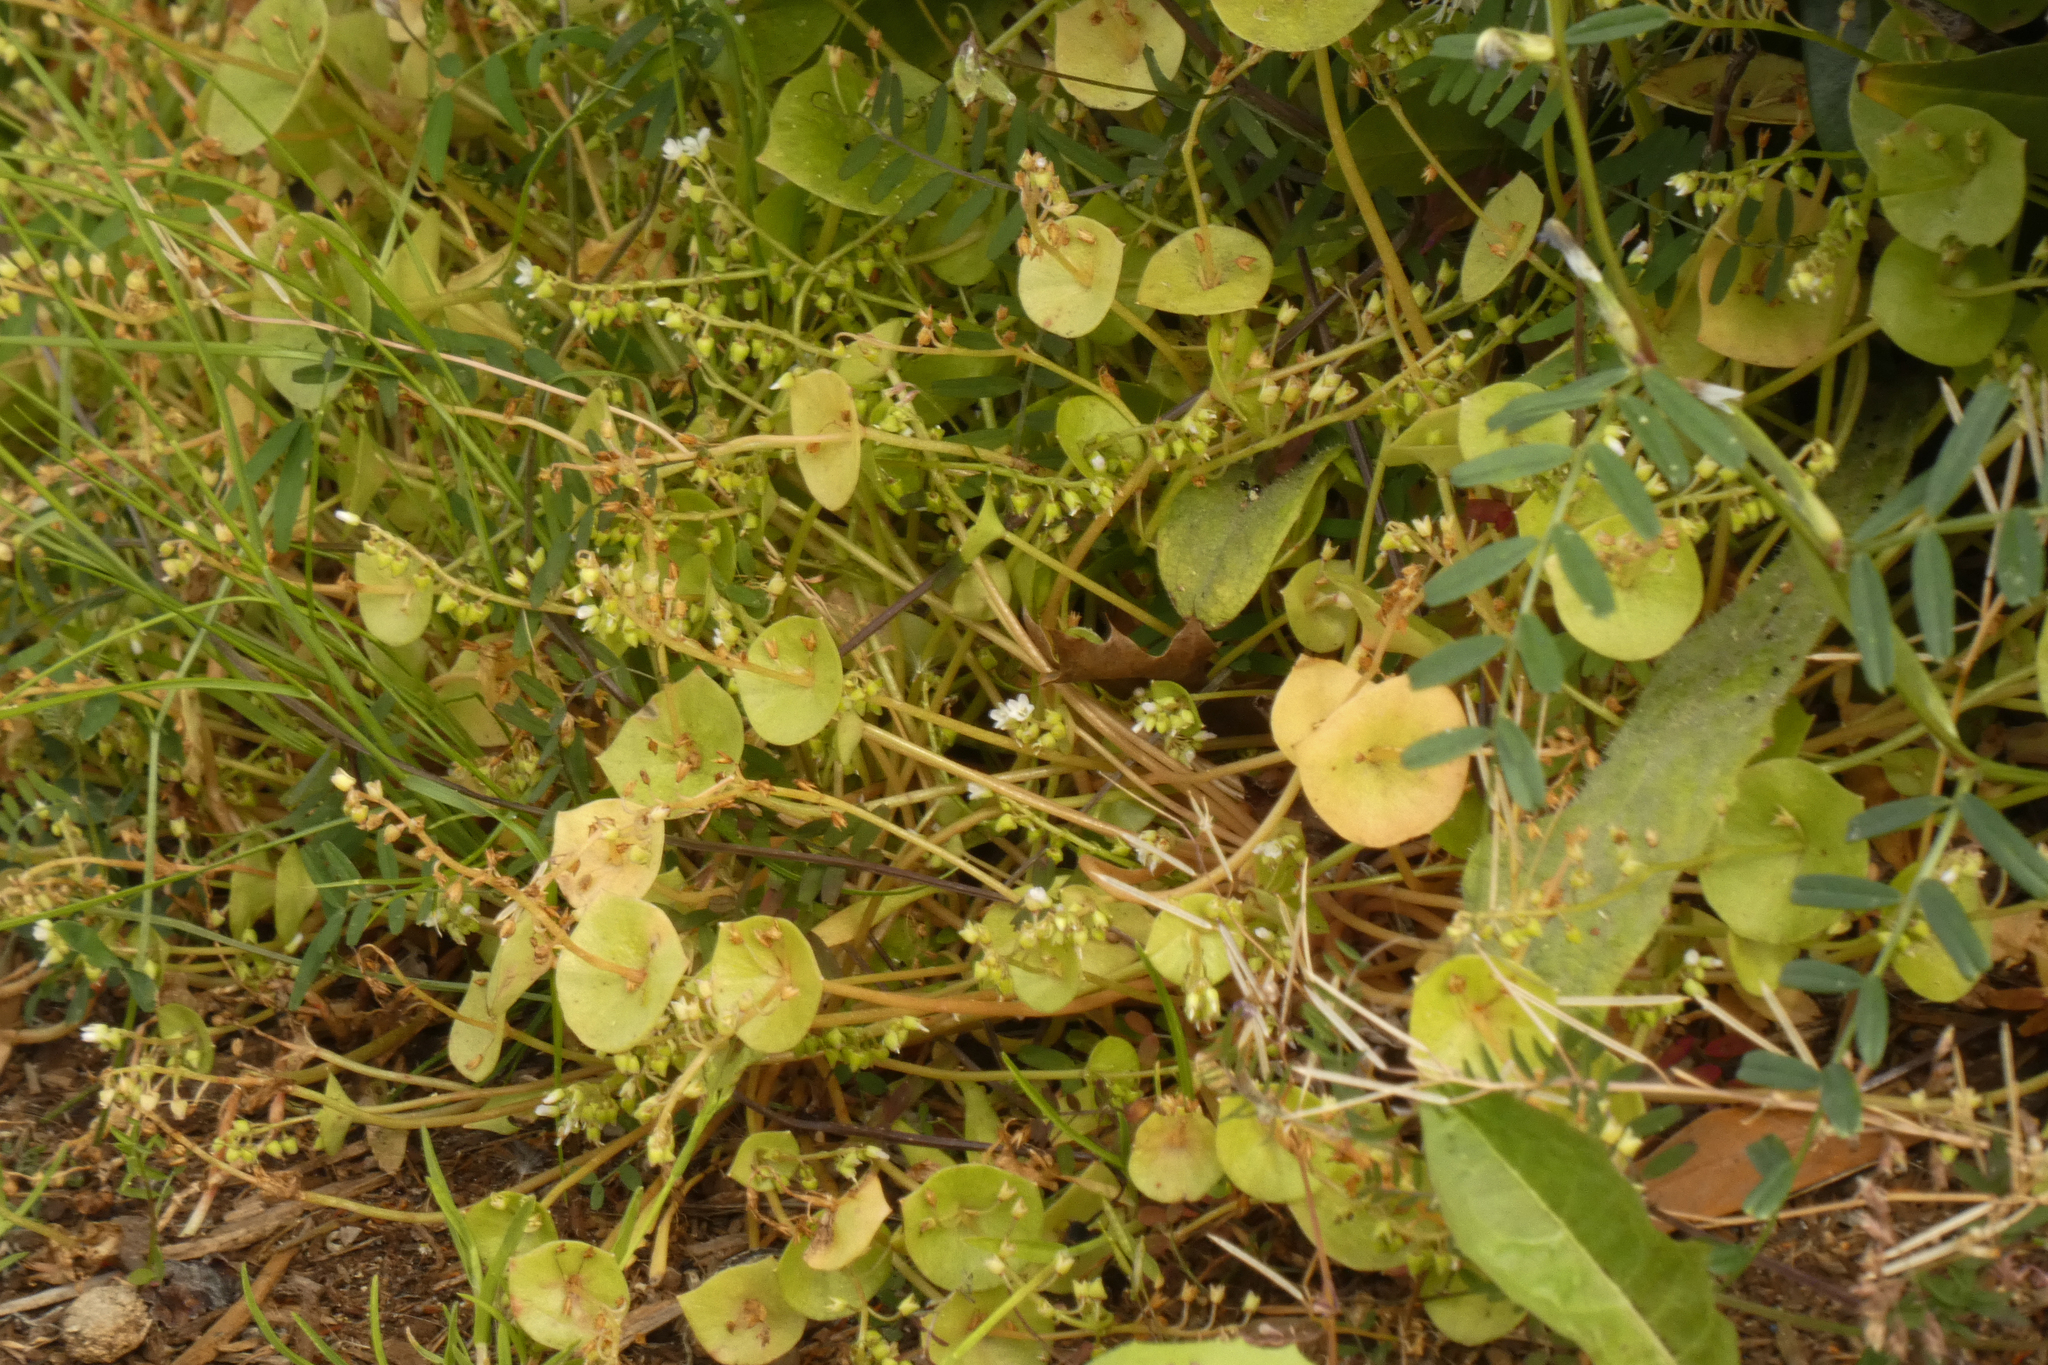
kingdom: Plantae
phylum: Tracheophyta
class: Magnoliopsida
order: Caryophyllales
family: Montiaceae
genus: Claytonia
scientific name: Claytonia perfoliata
